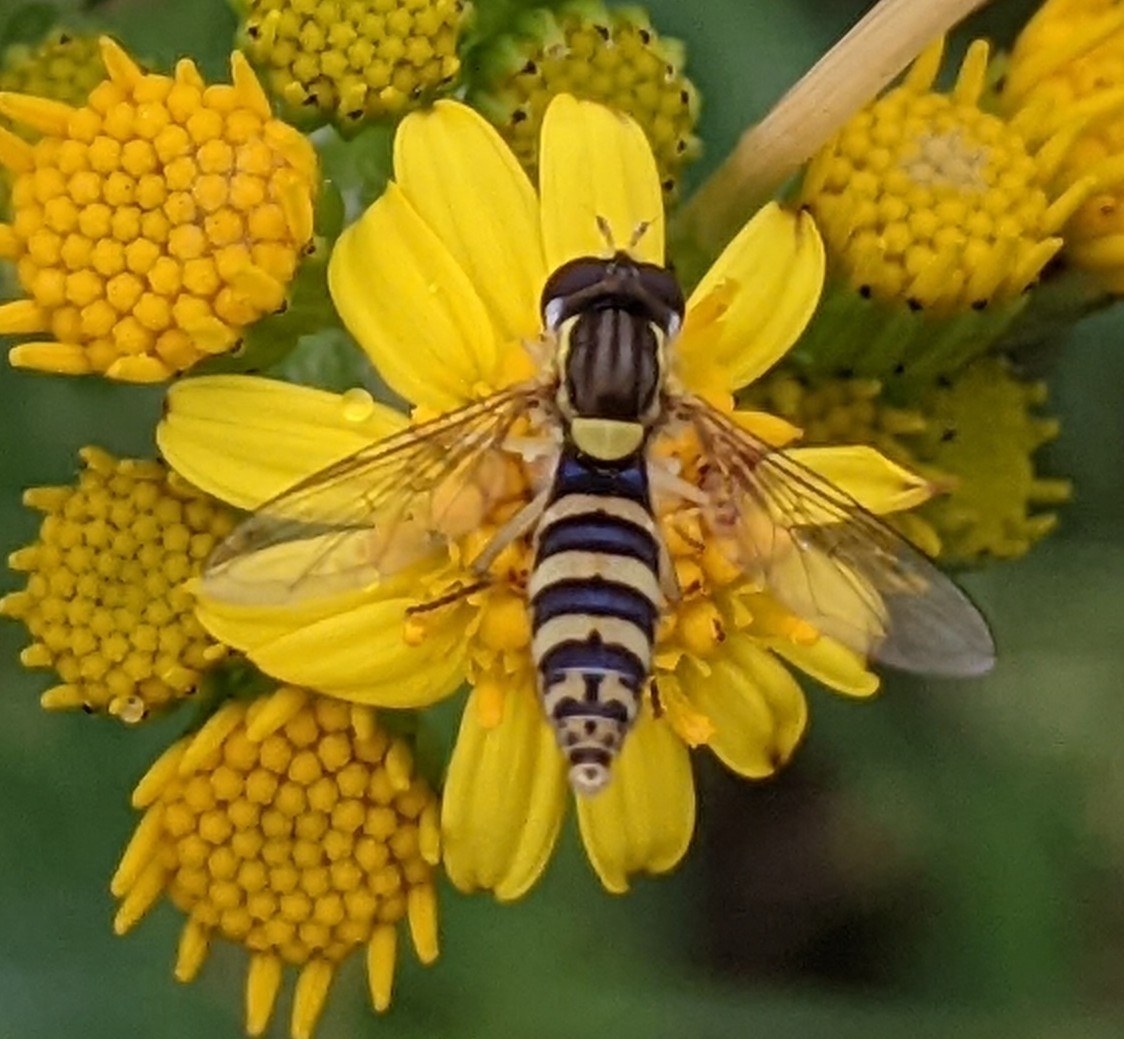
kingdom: Animalia
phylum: Arthropoda
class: Insecta
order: Diptera
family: Syrphidae
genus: Sphaerophoria
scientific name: Sphaerophoria
